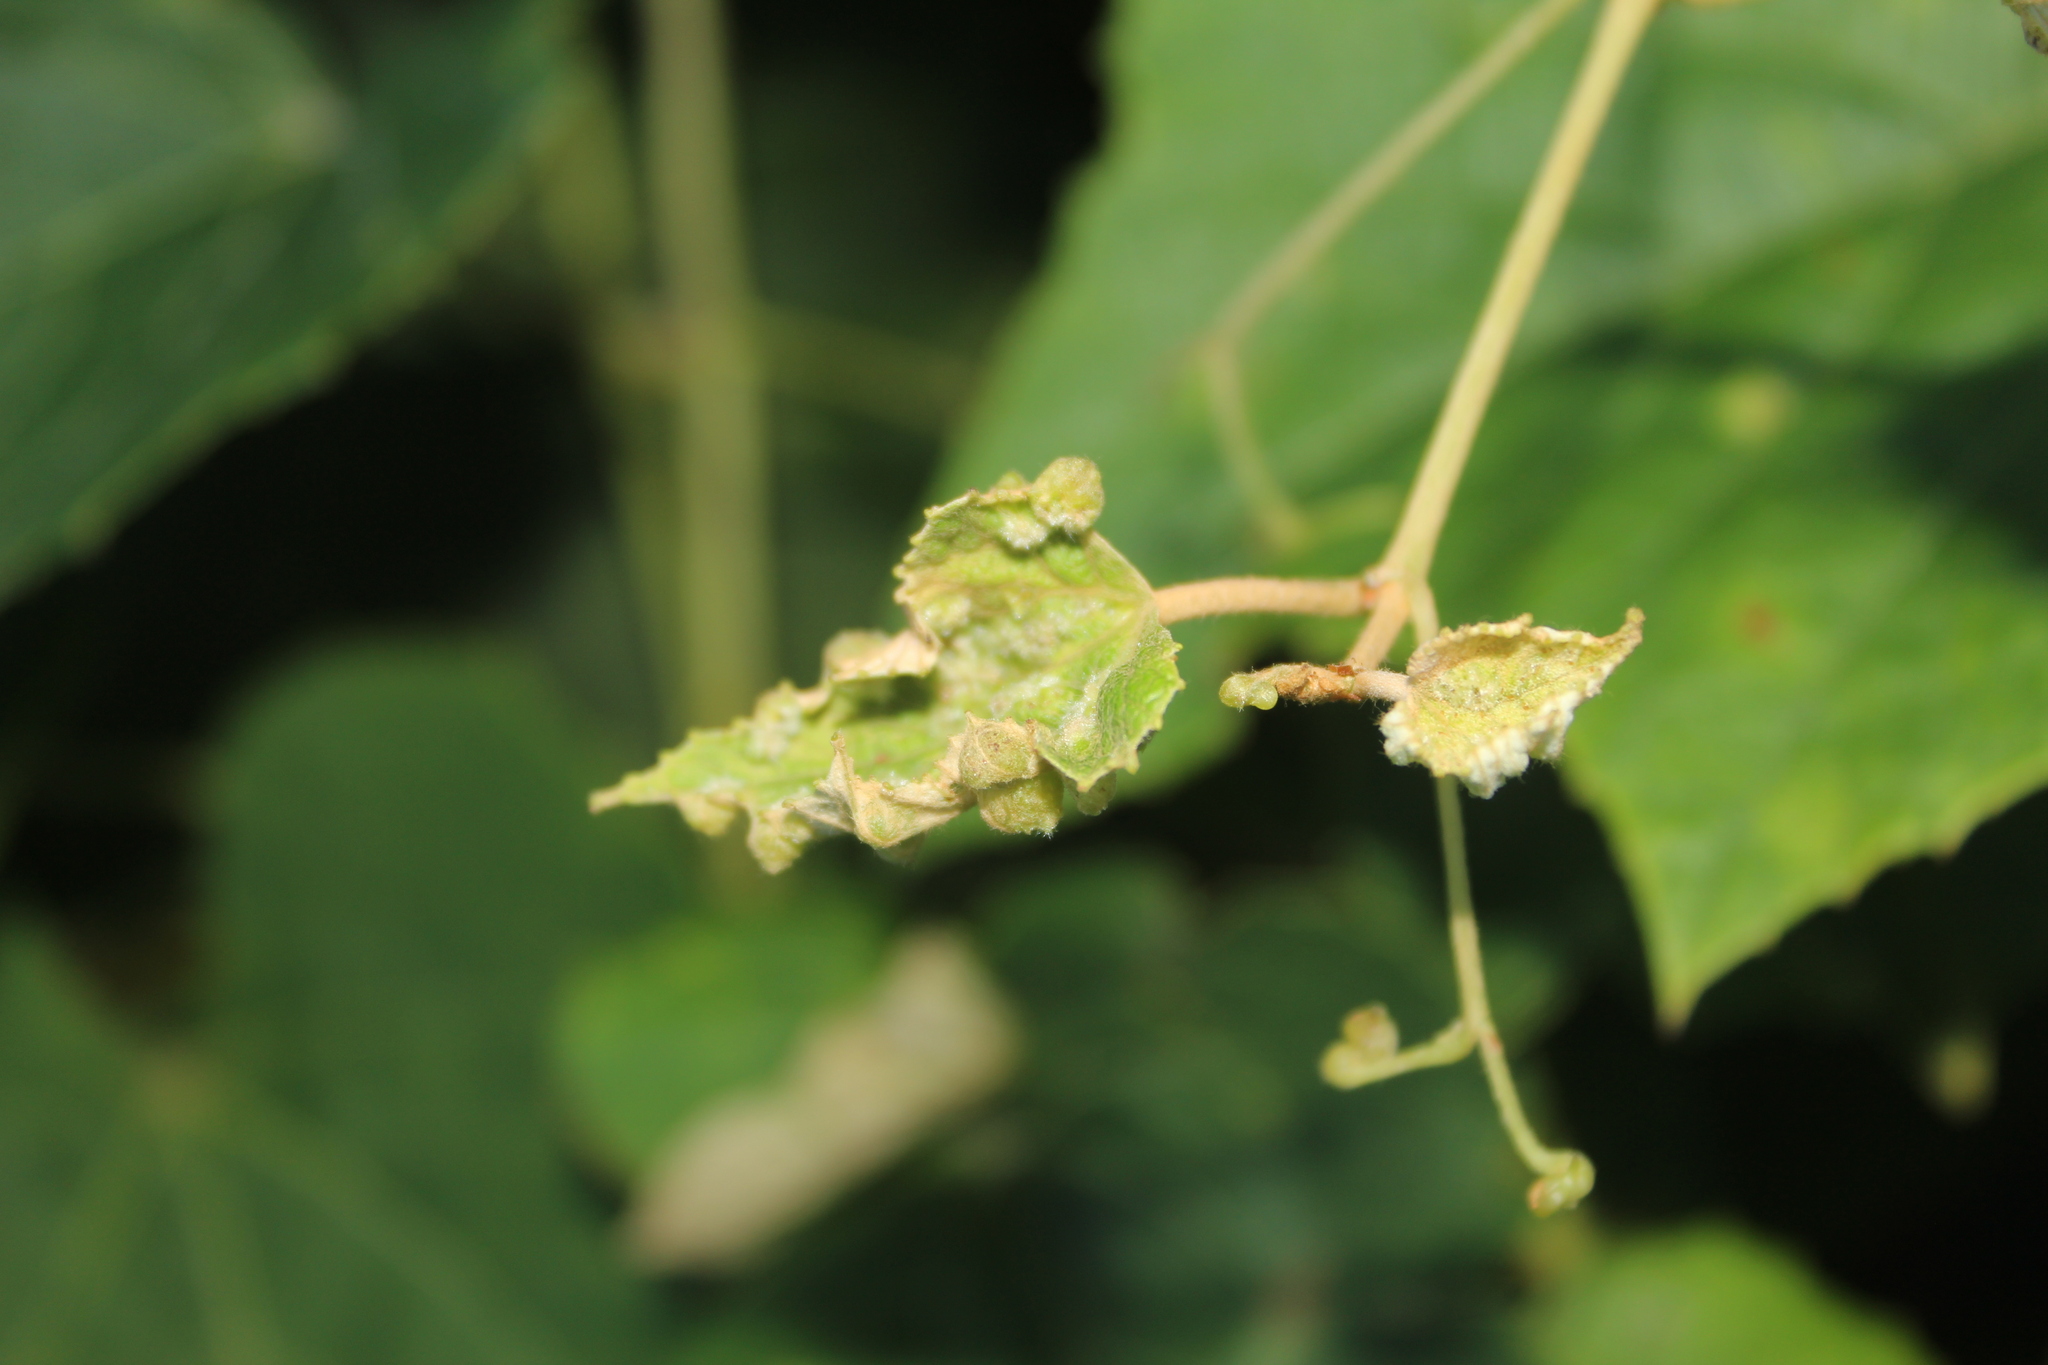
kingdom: Animalia
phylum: Arthropoda
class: Insecta
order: Hemiptera
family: Phylloxeridae
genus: Daktulosphaira
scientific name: Daktulosphaira vitifoliae
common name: Grape phylloxera
